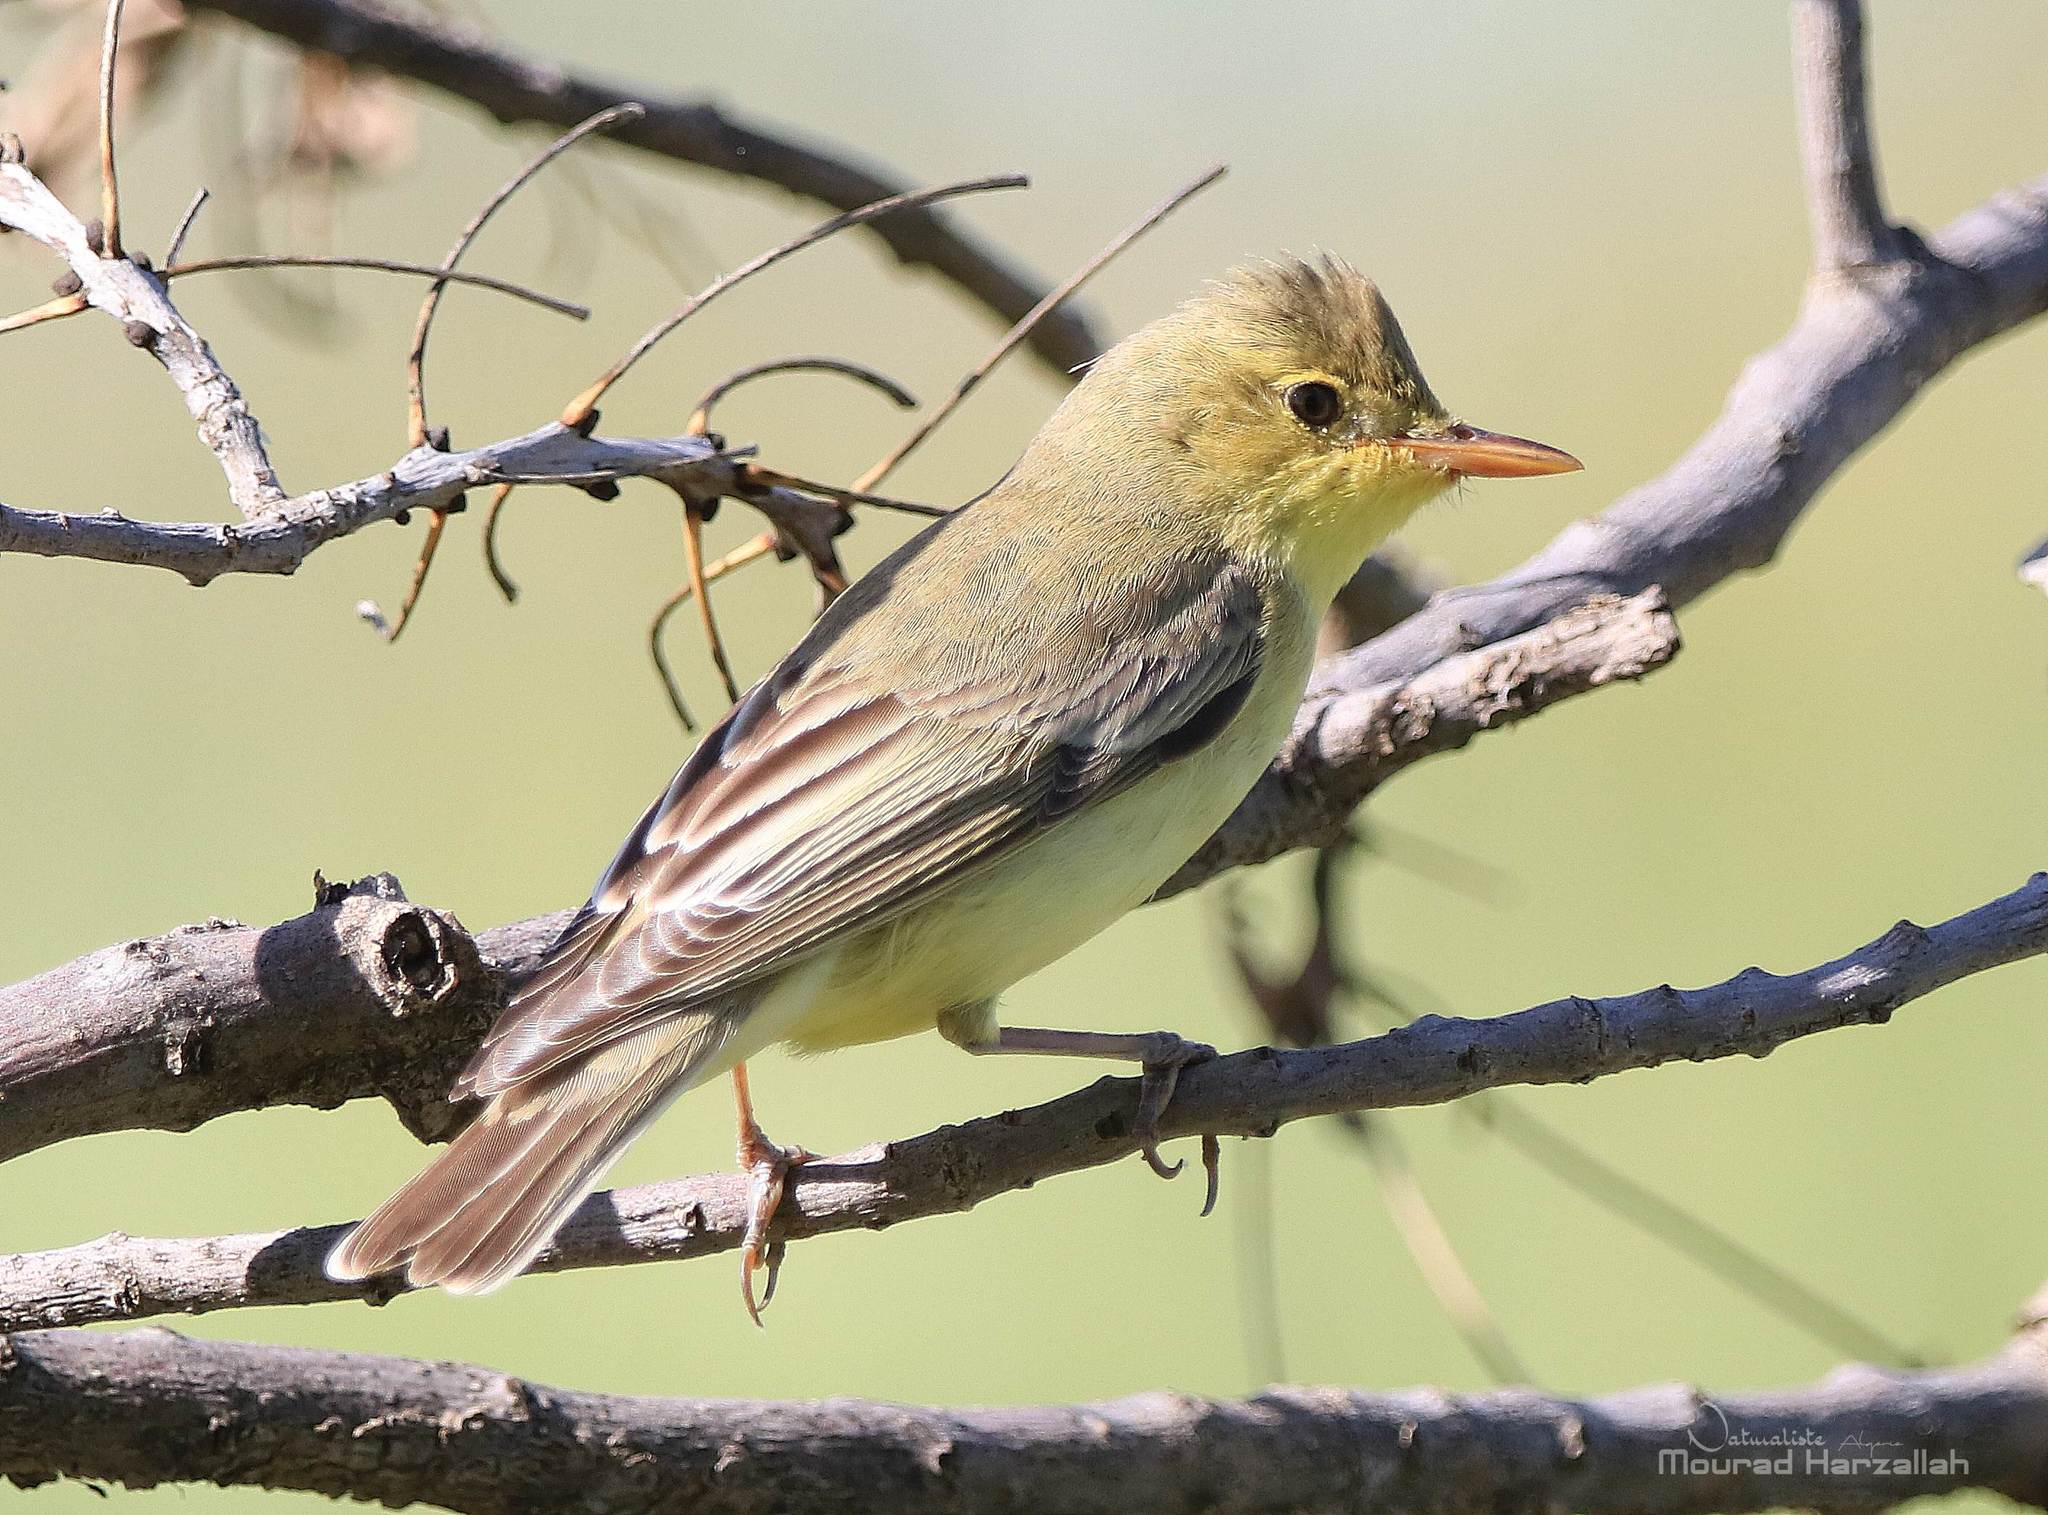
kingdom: Animalia
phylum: Chordata
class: Aves
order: Passeriformes
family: Acrocephalidae
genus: Hippolais
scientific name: Hippolais icterina
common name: Icterine warbler
